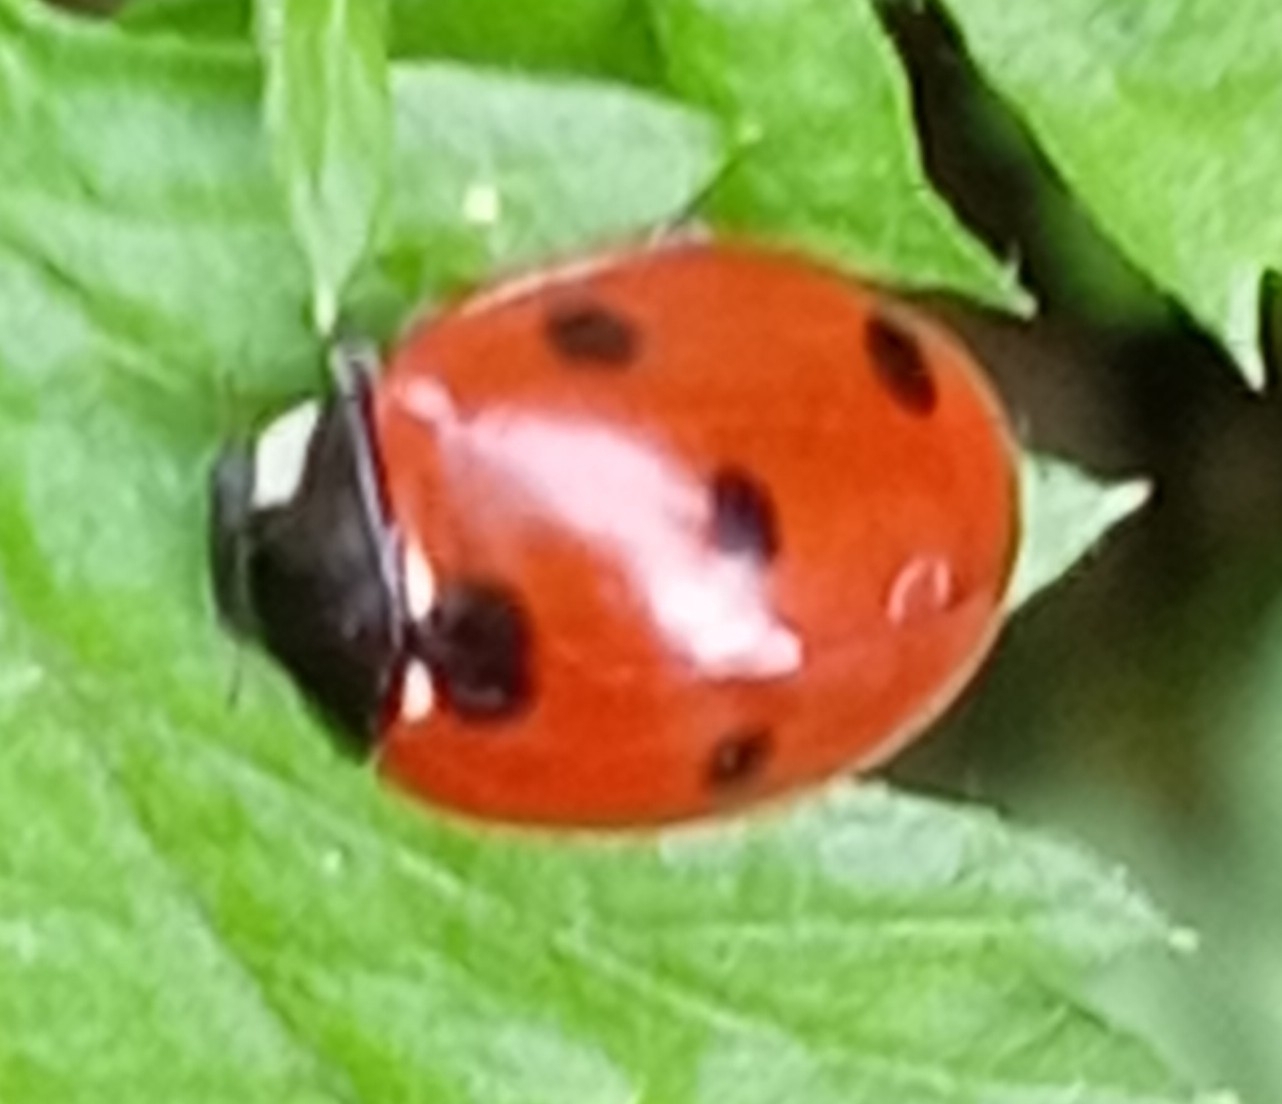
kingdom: Animalia
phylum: Arthropoda
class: Insecta
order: Coleoptera
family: Coccinellidae
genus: Coccinella
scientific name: Coccinella septempunctata
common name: Sevenspotted lady beetle
